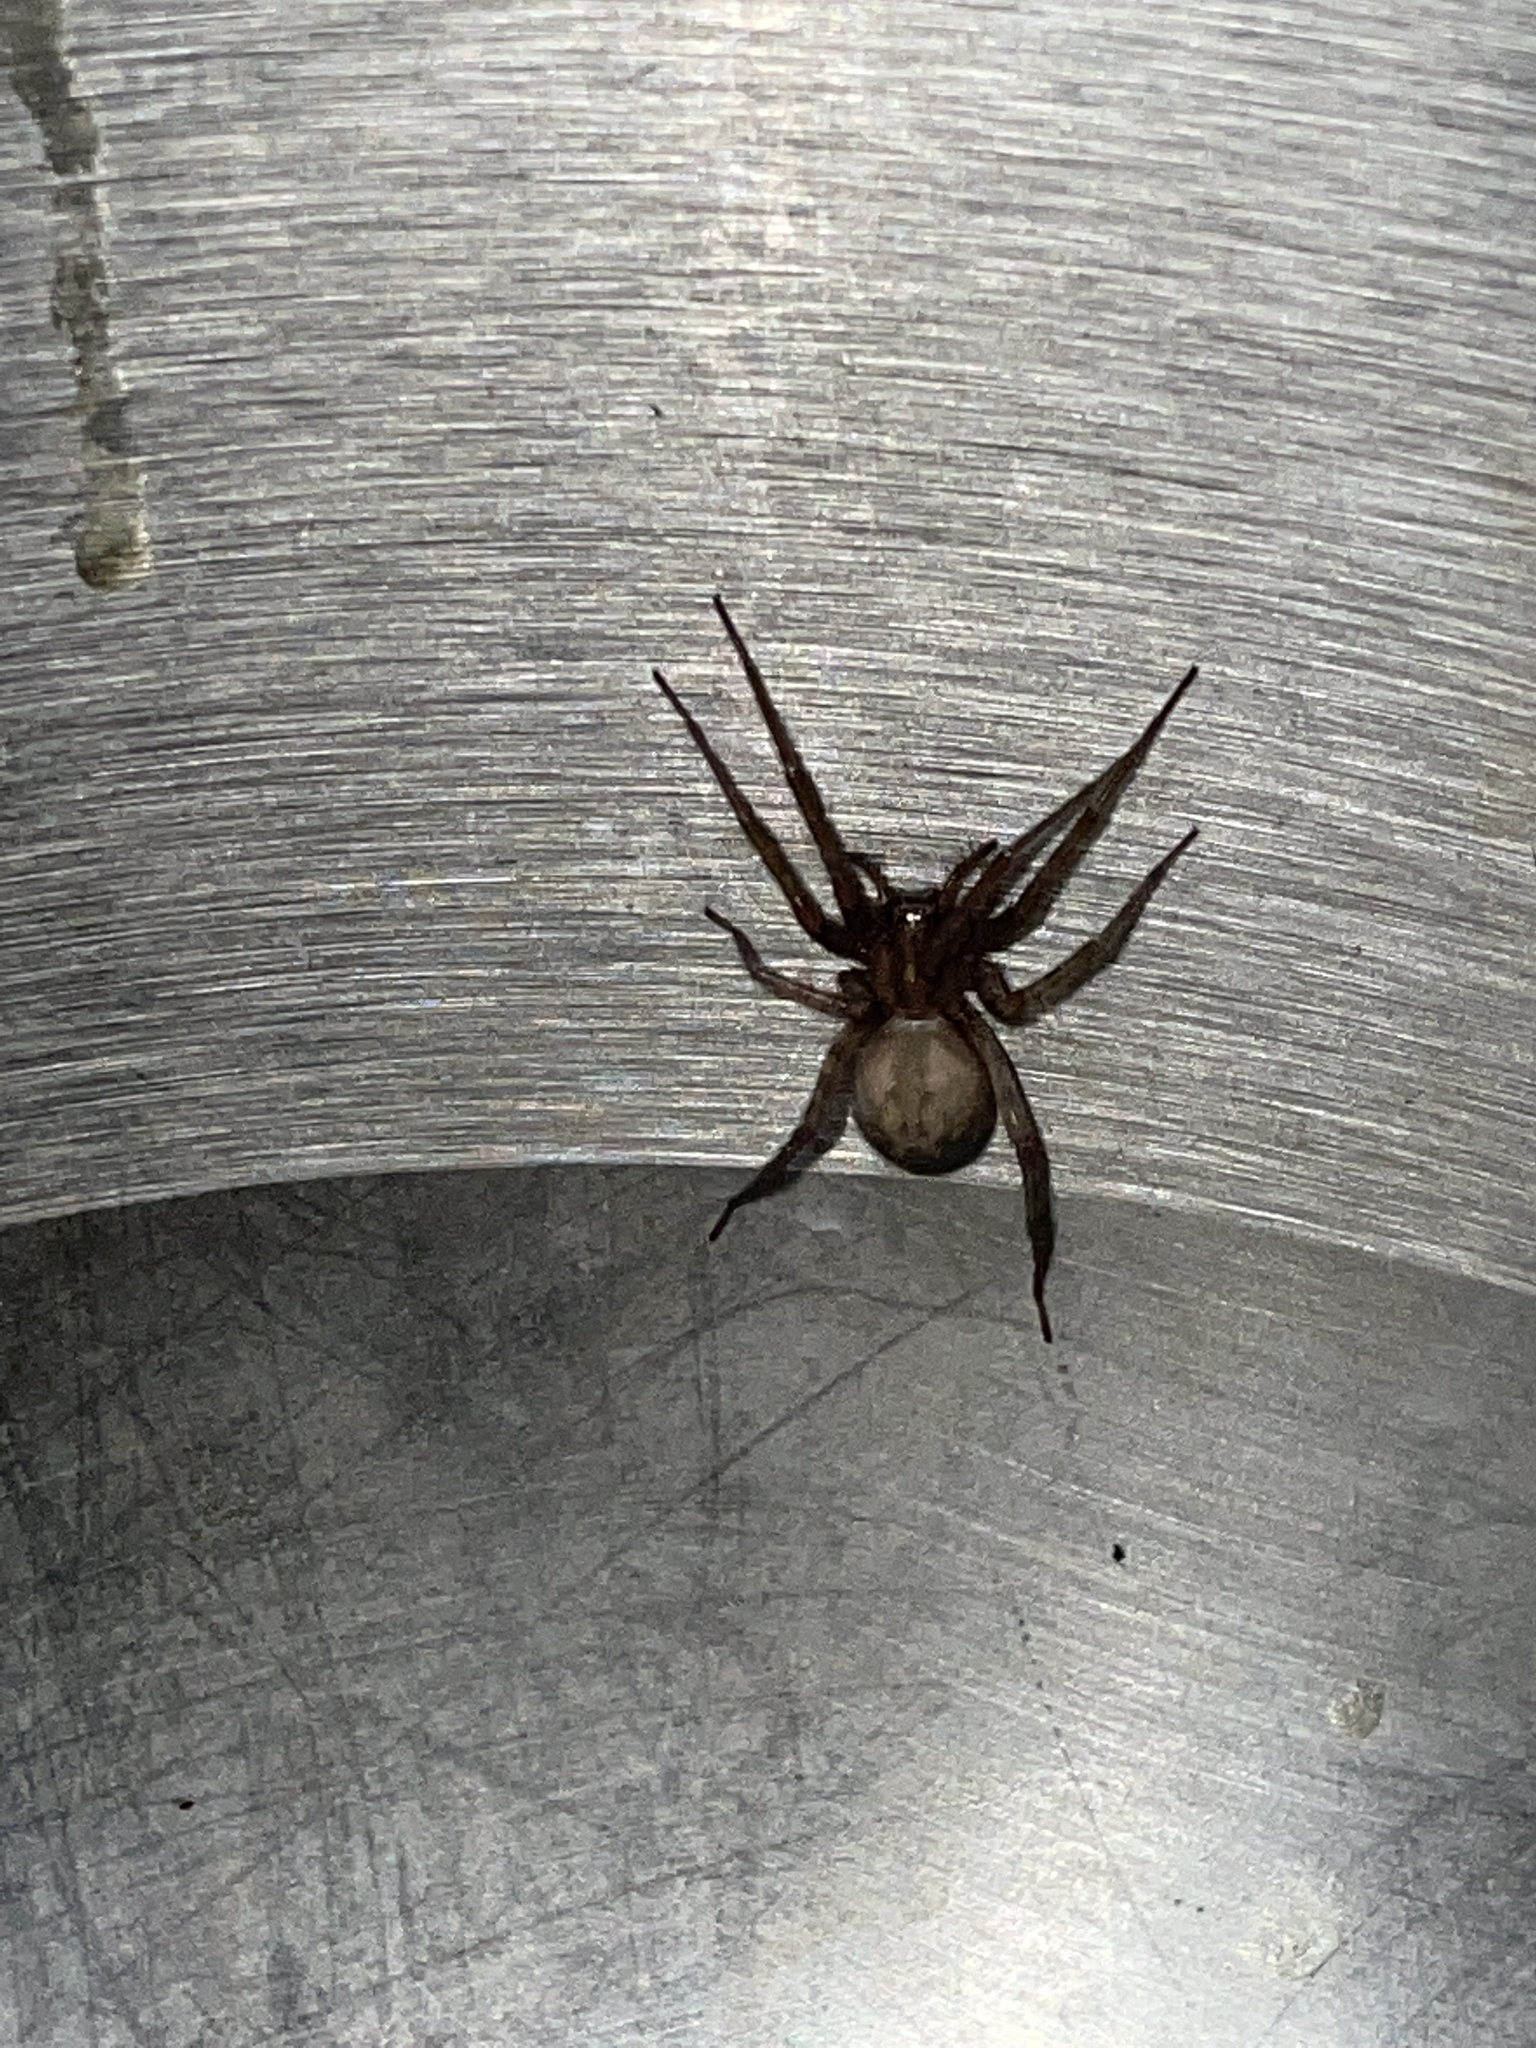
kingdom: Animalia
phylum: Arthropoda
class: Arachnida
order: Araneae
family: Agelenidae
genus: Tegenaria
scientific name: Tegenaria domestica
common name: Barn funnel weaver
